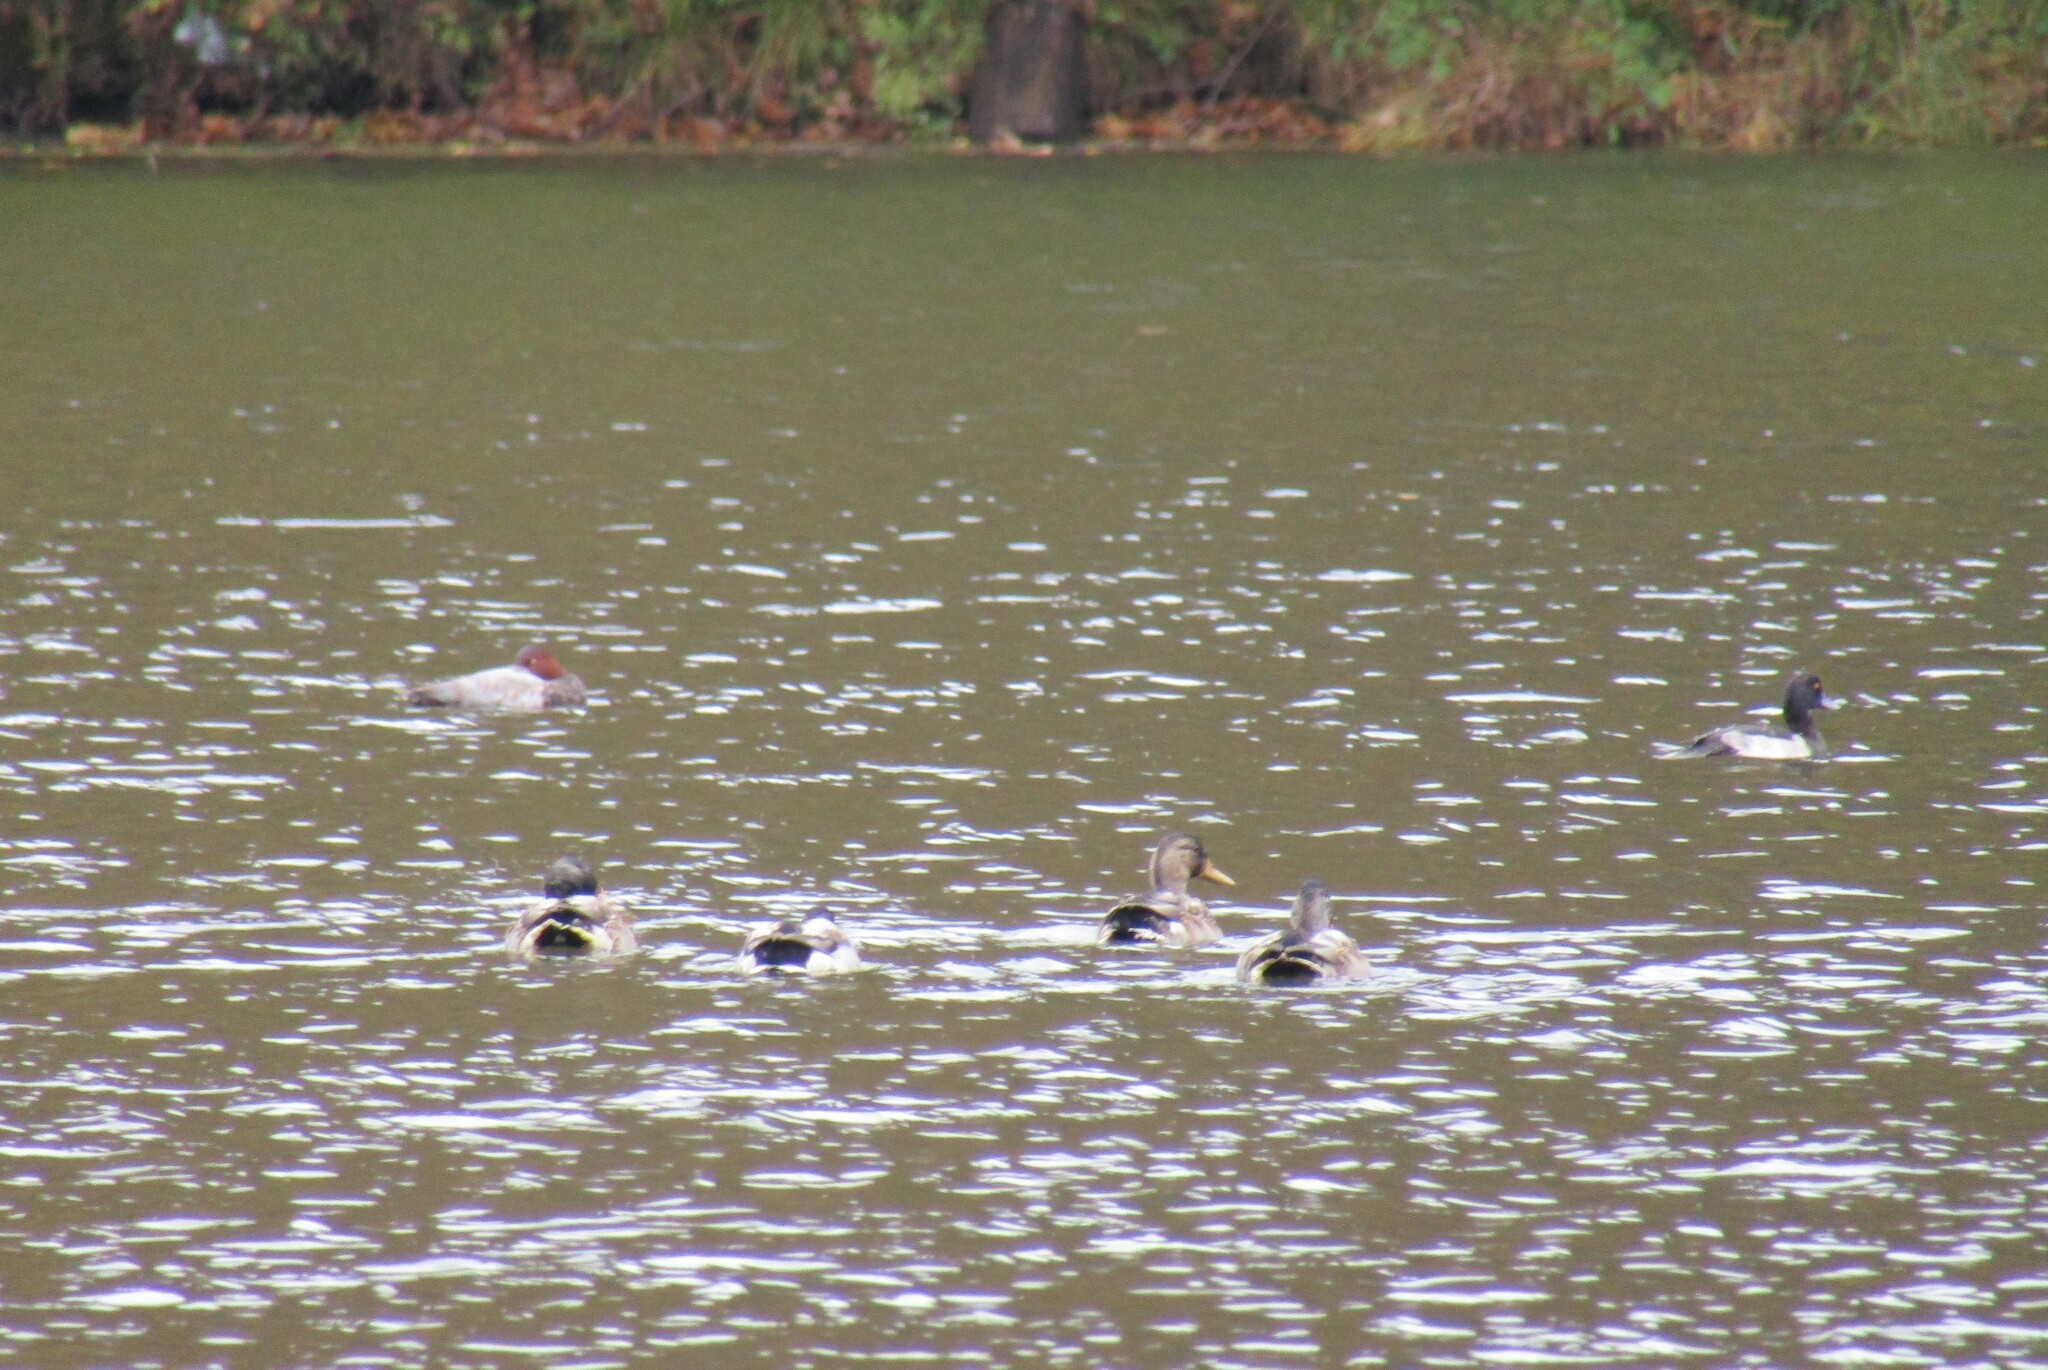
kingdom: Animalia
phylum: Chordata
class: Aves
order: Anseriformes
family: Anatidae
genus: Aythya
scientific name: Aythya ferina
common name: Common pochard
